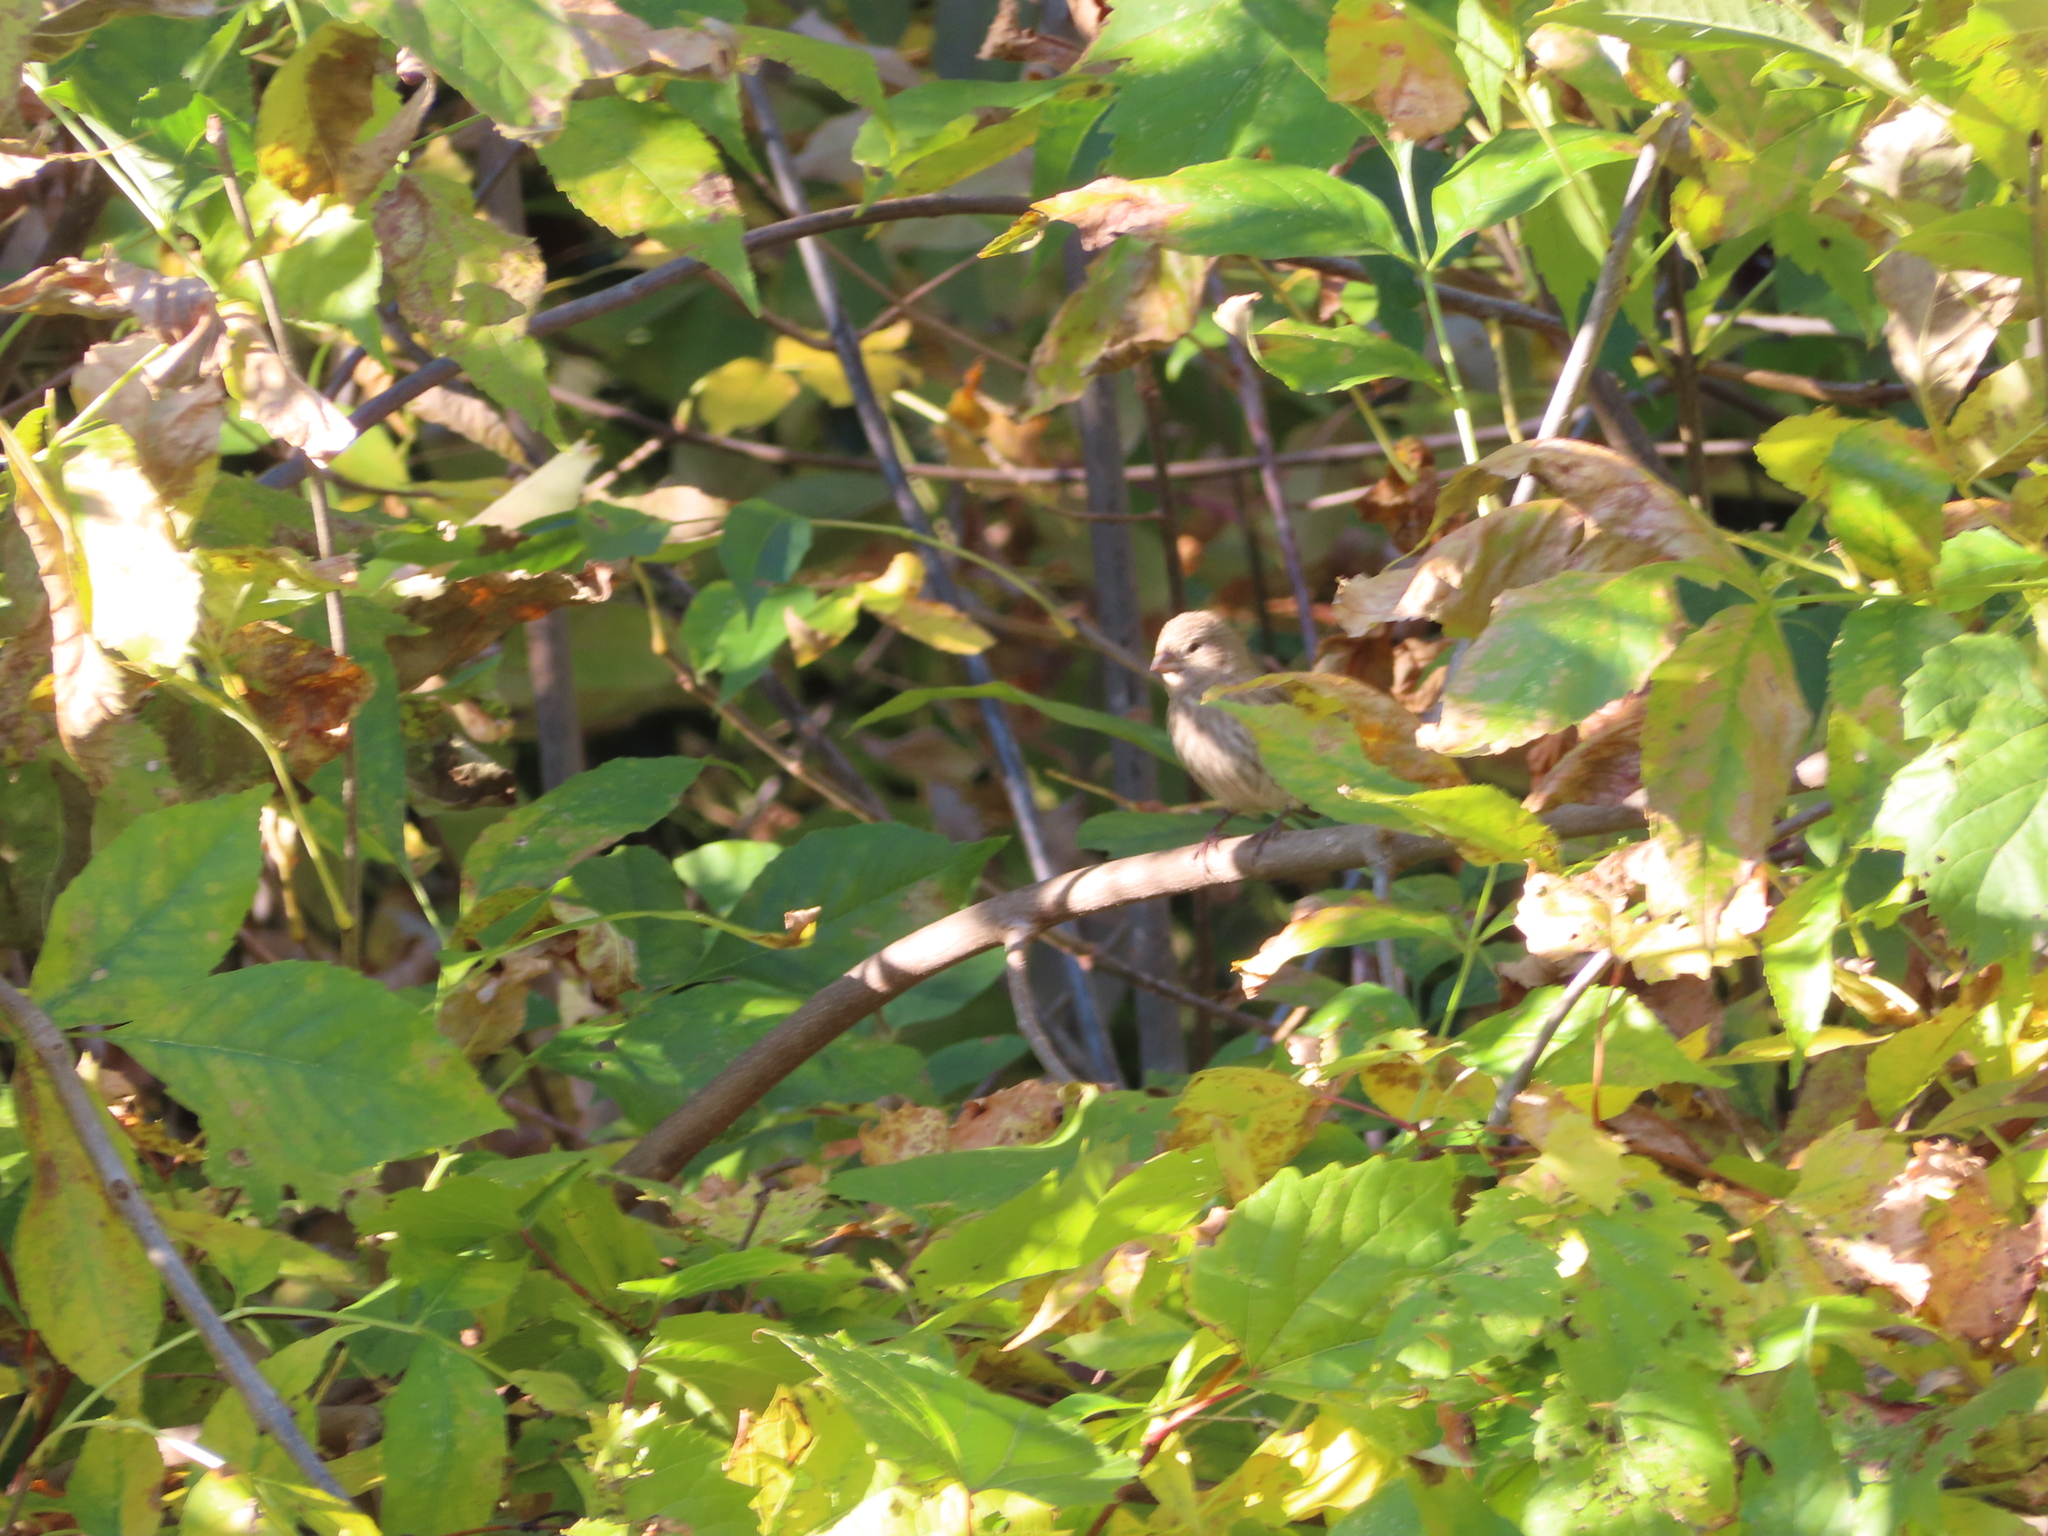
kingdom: Animalia
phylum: Chordata
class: Aves
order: Passeriformes
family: Fringillidae
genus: Haemorhous
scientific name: Haemorhous mexicanus
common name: House finch
